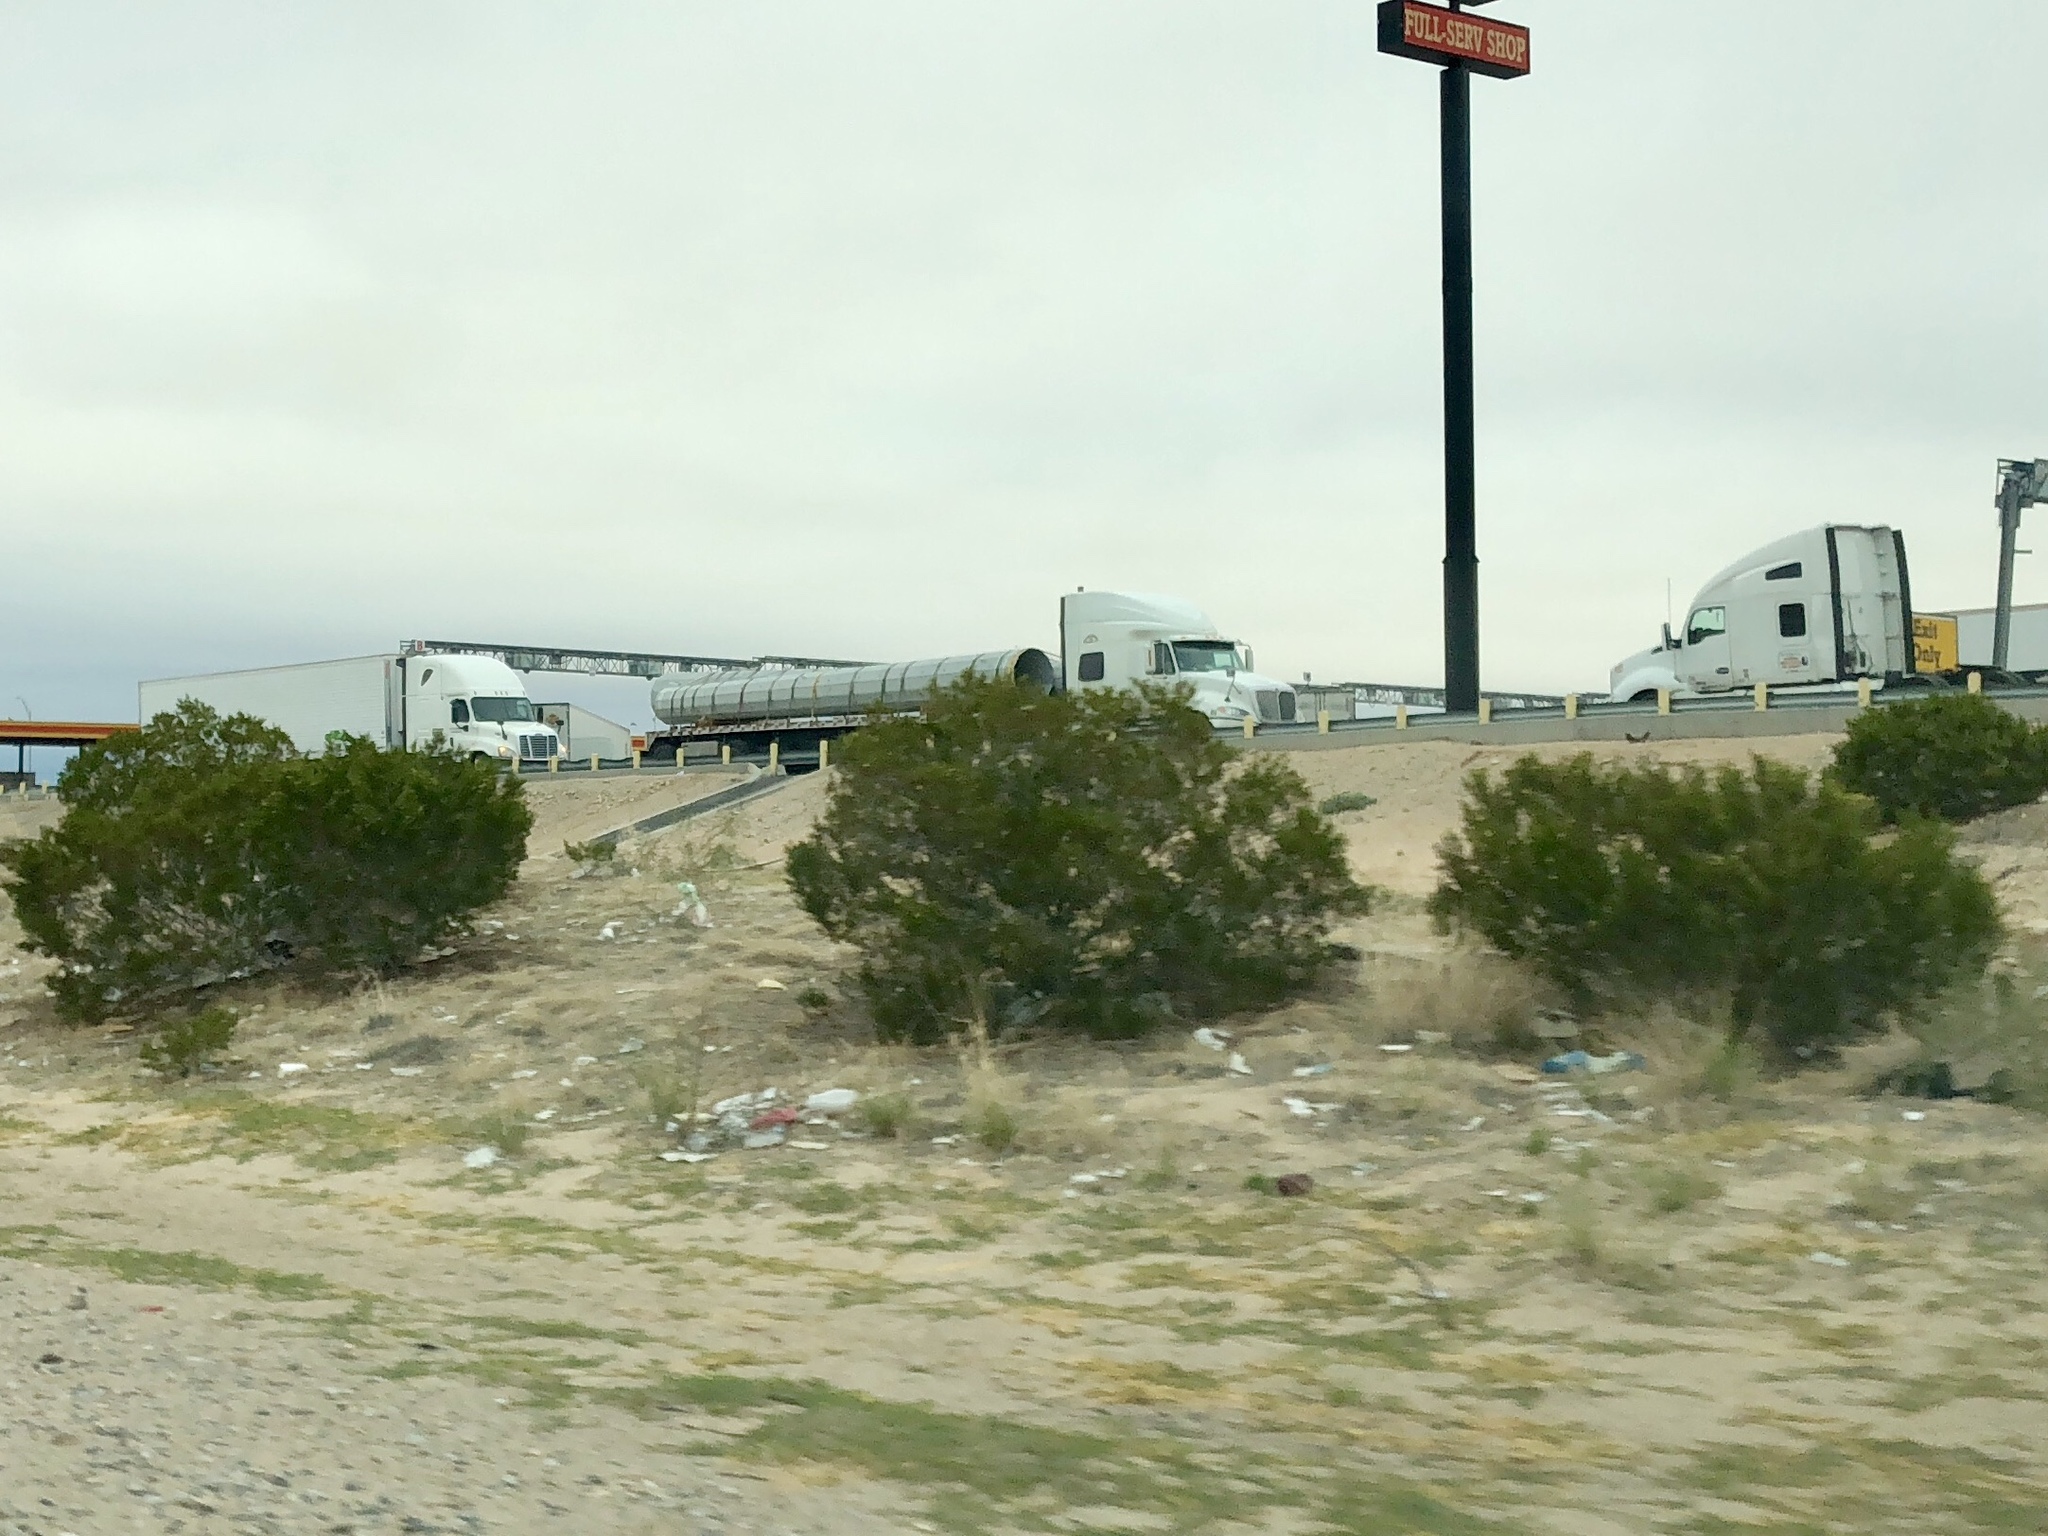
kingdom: Plantae
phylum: Tracheophyta
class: Magnoliopsida
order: Zygophyllales
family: Zygophyllaceae
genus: Larrea
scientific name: Larrea tridentata
